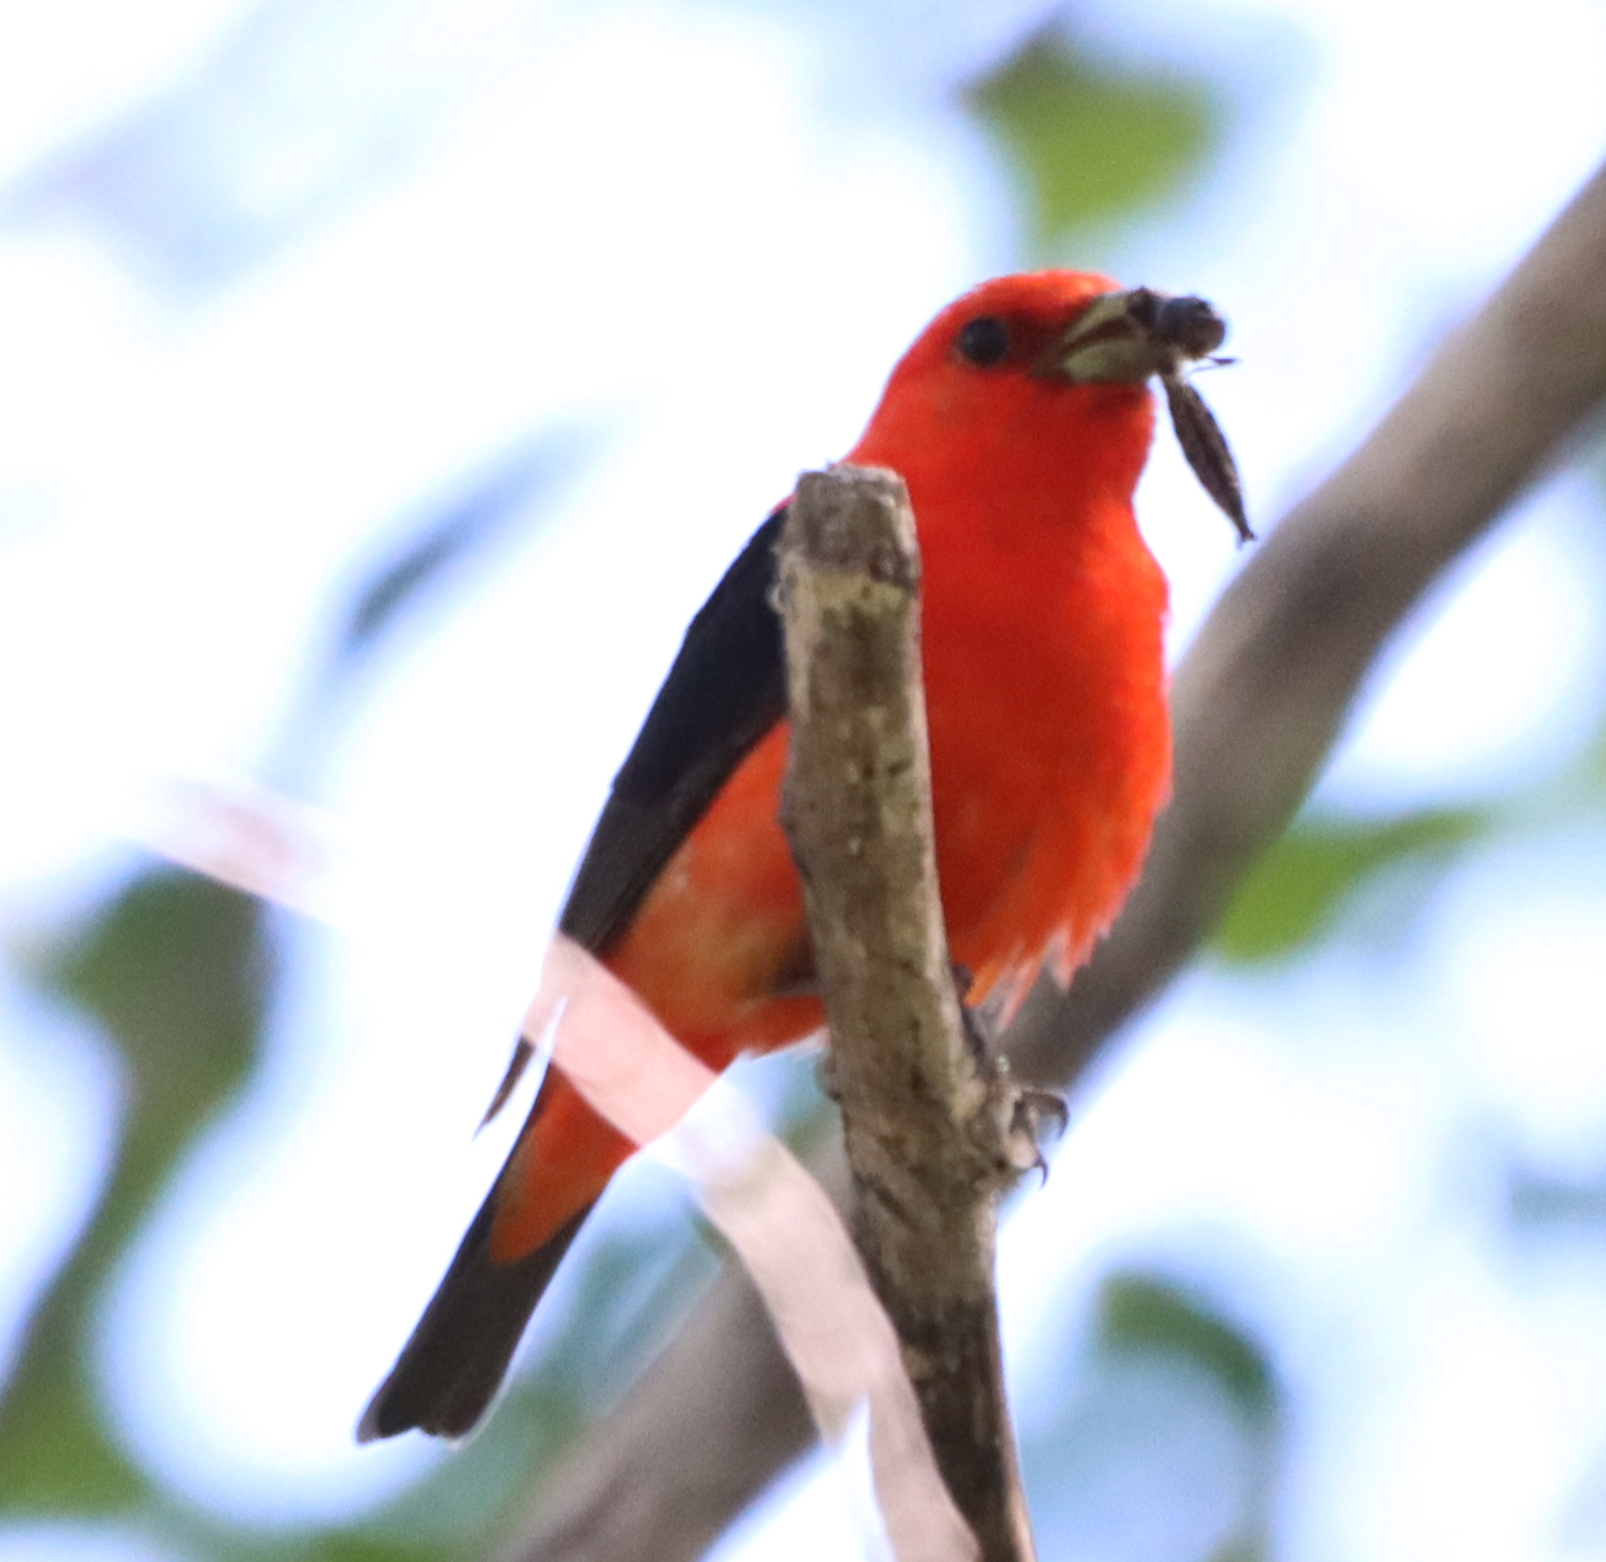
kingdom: Animalia
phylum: Chordata
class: Aves
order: Passeriformes
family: Cardinalidae
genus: Piranga
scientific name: Piranga olivacea
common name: Scarlet tanager
